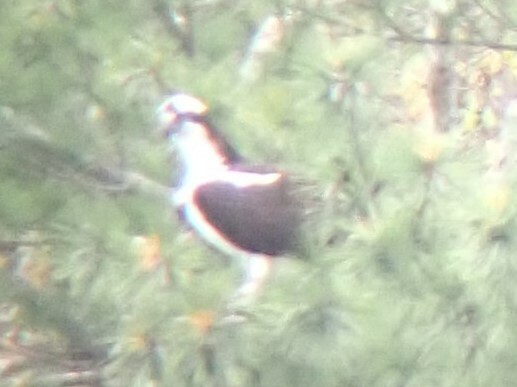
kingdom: Animalia
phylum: Chordata
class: Aves
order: Accipitriformes
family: Pandionidae
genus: Pandion
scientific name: Pandion haliaetus
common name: Osprey
